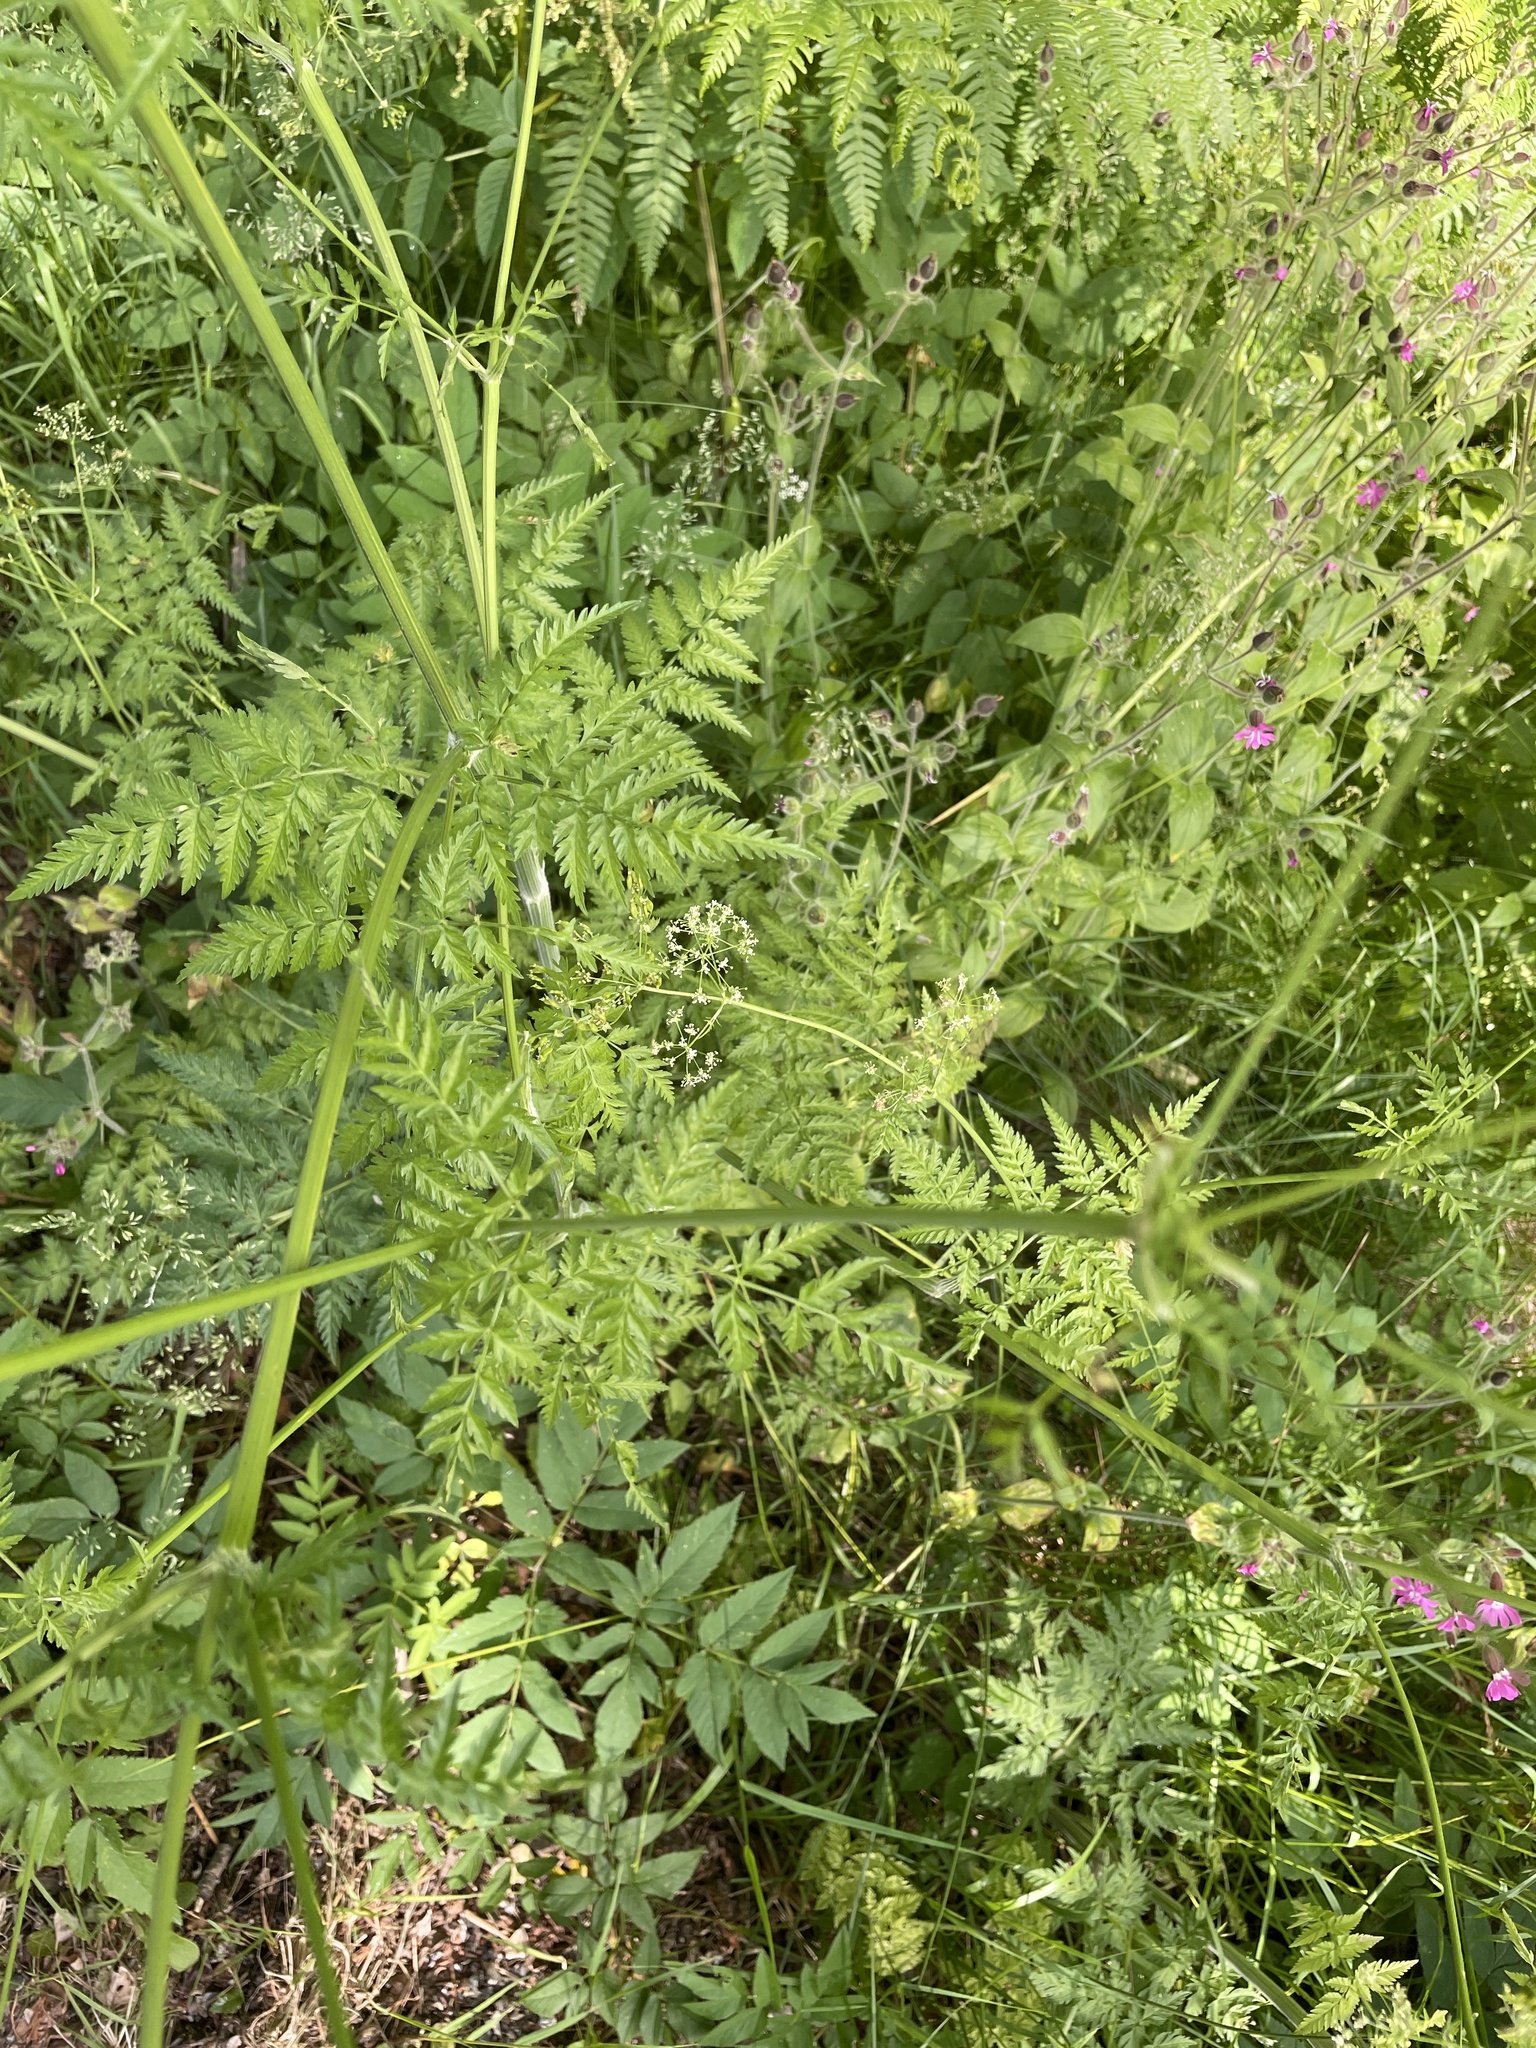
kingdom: Plantae
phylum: Tracheophyta
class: Magnoliopsida
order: Apiales
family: Apiaceae
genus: Anthriscus
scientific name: Anthriscus sylvestris
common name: Cow parsley
